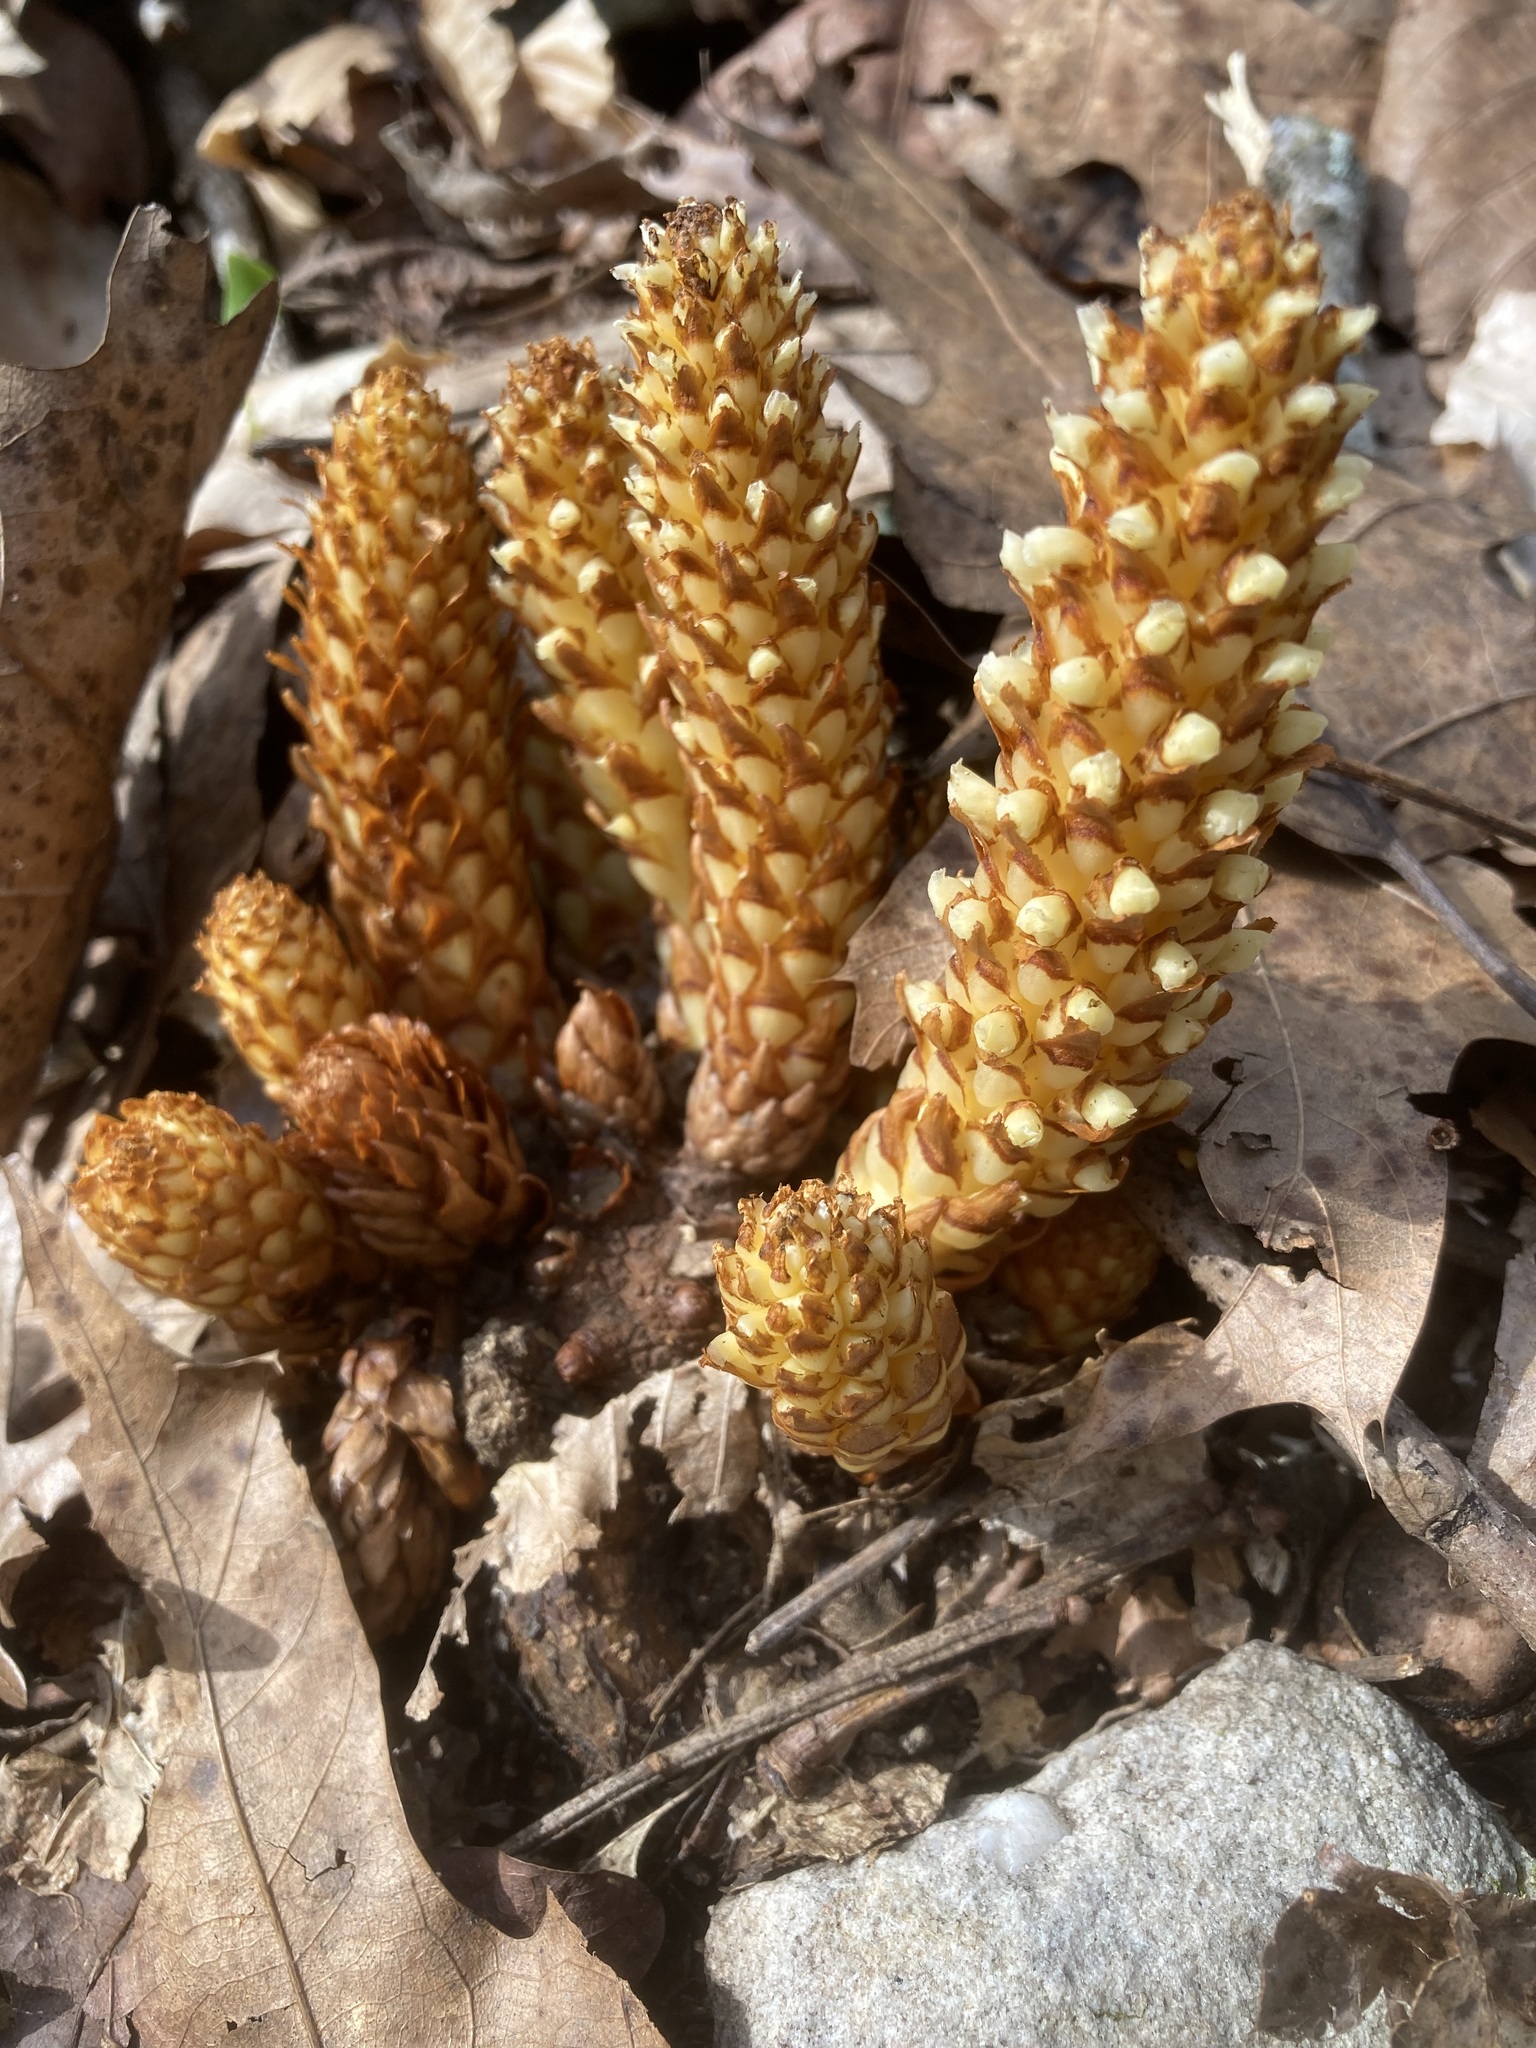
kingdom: Plantae
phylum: Tracheophyta
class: Magnoliopsida
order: Lamiales
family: Orobanchaceae
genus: Conopholis
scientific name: Conopholis americana
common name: American cancer-root
